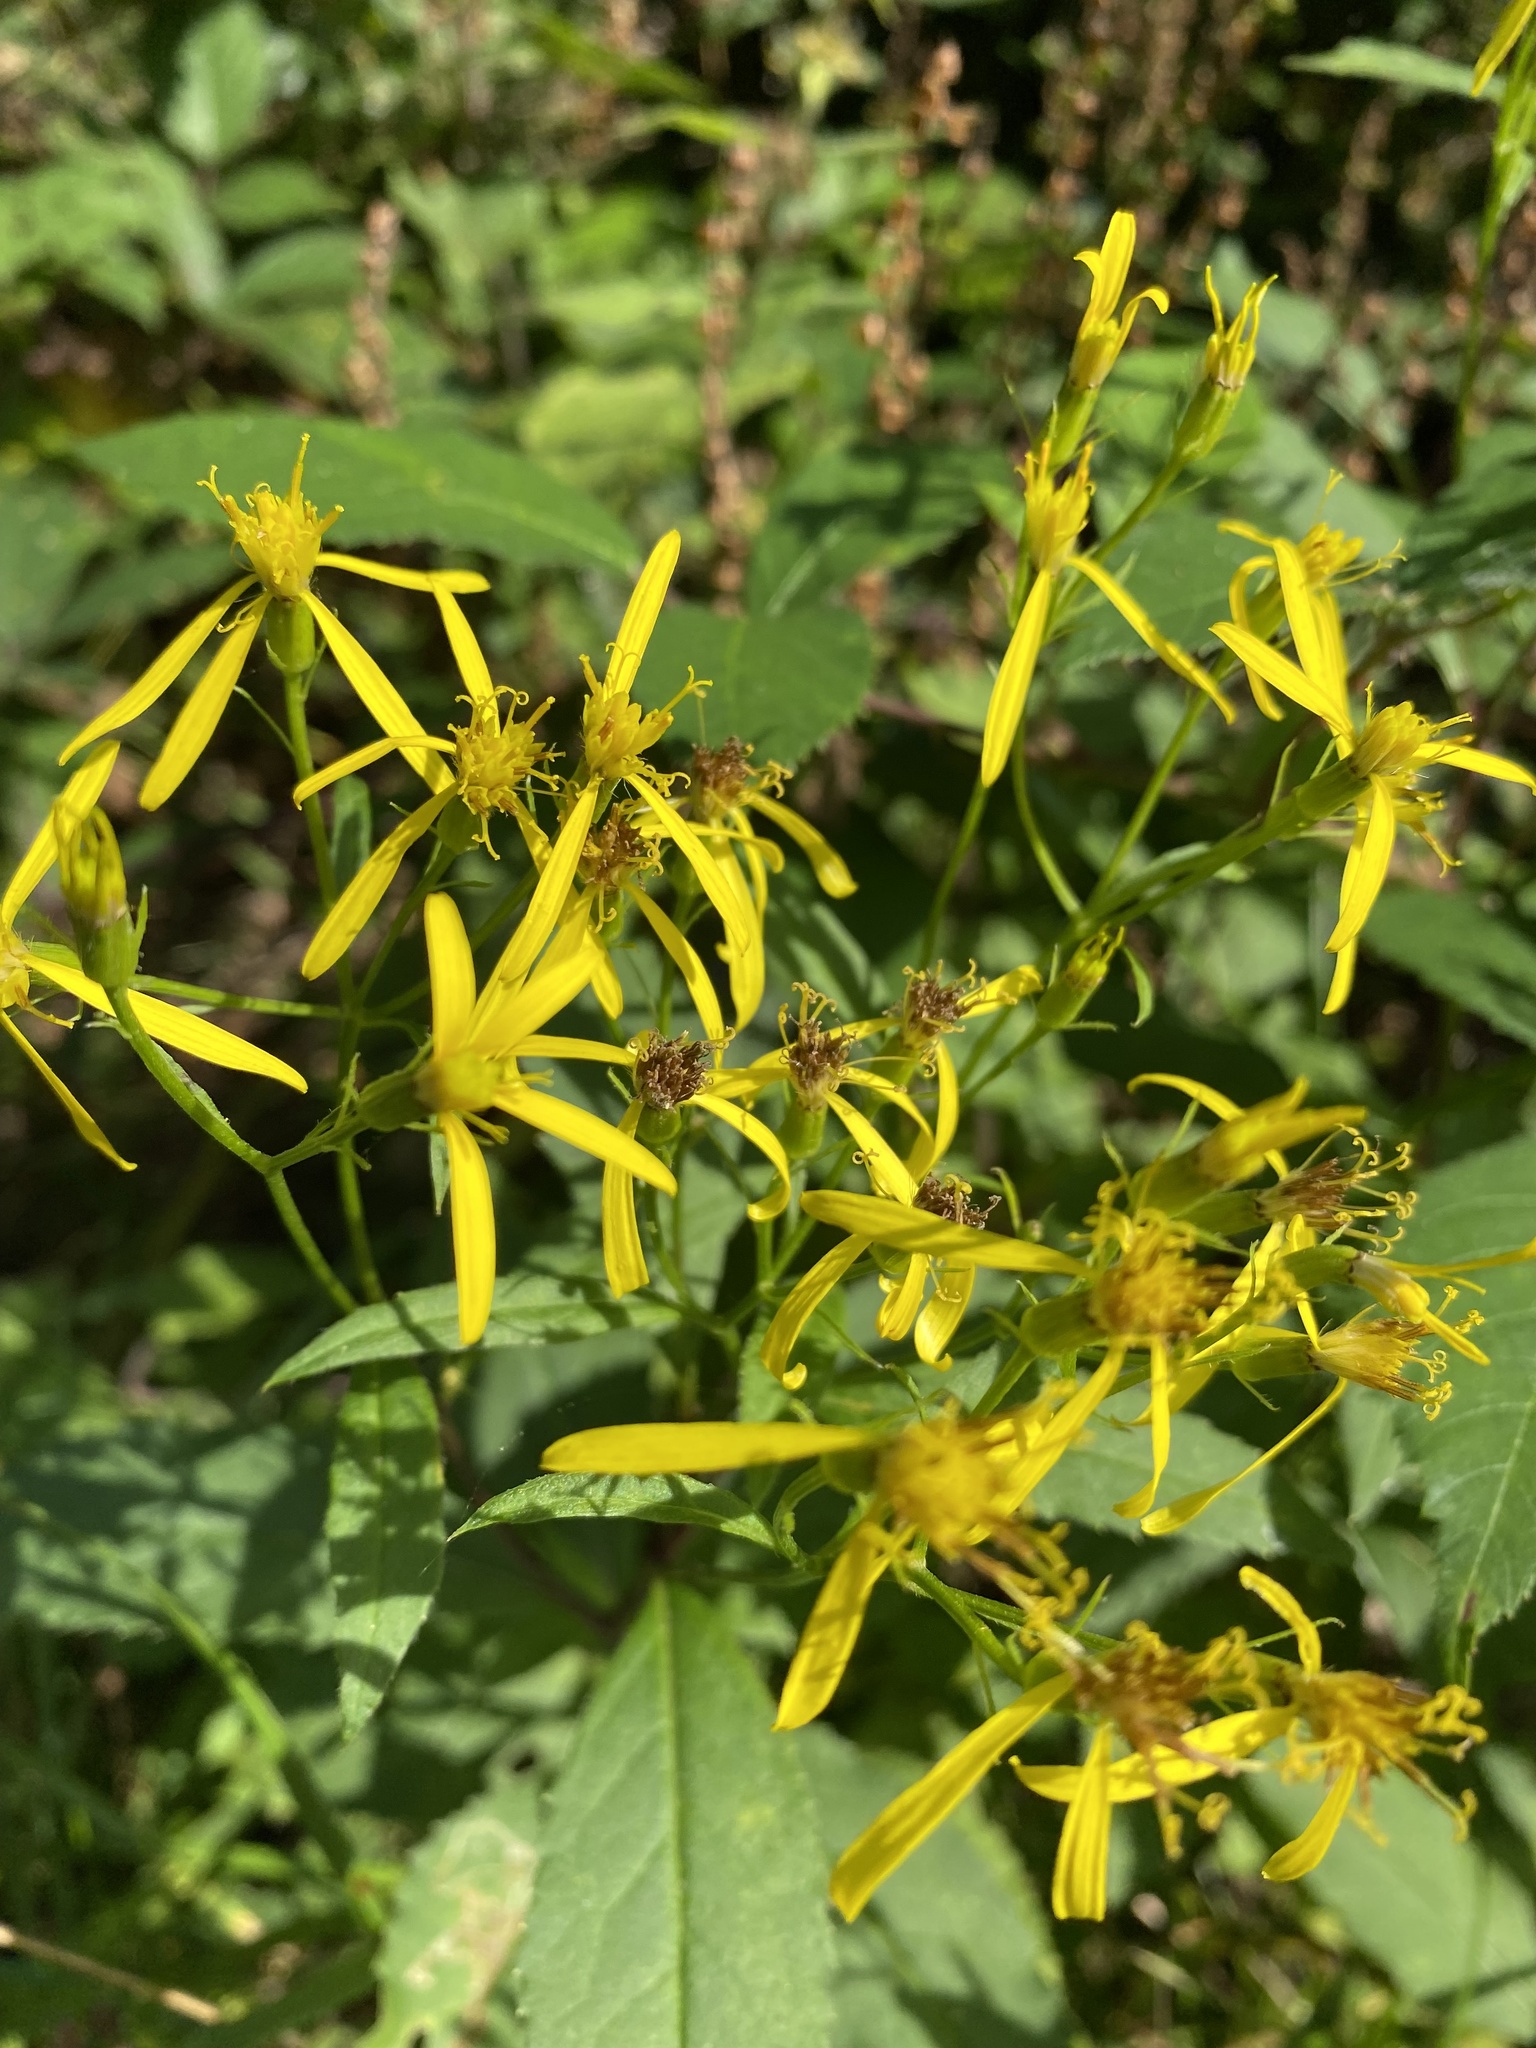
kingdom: Plantae
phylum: Tracheophyta
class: Magnoliopsida
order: Asterales
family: Asteraceae
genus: Senecio
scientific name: Senecio ovatus
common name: Wood ragwort
